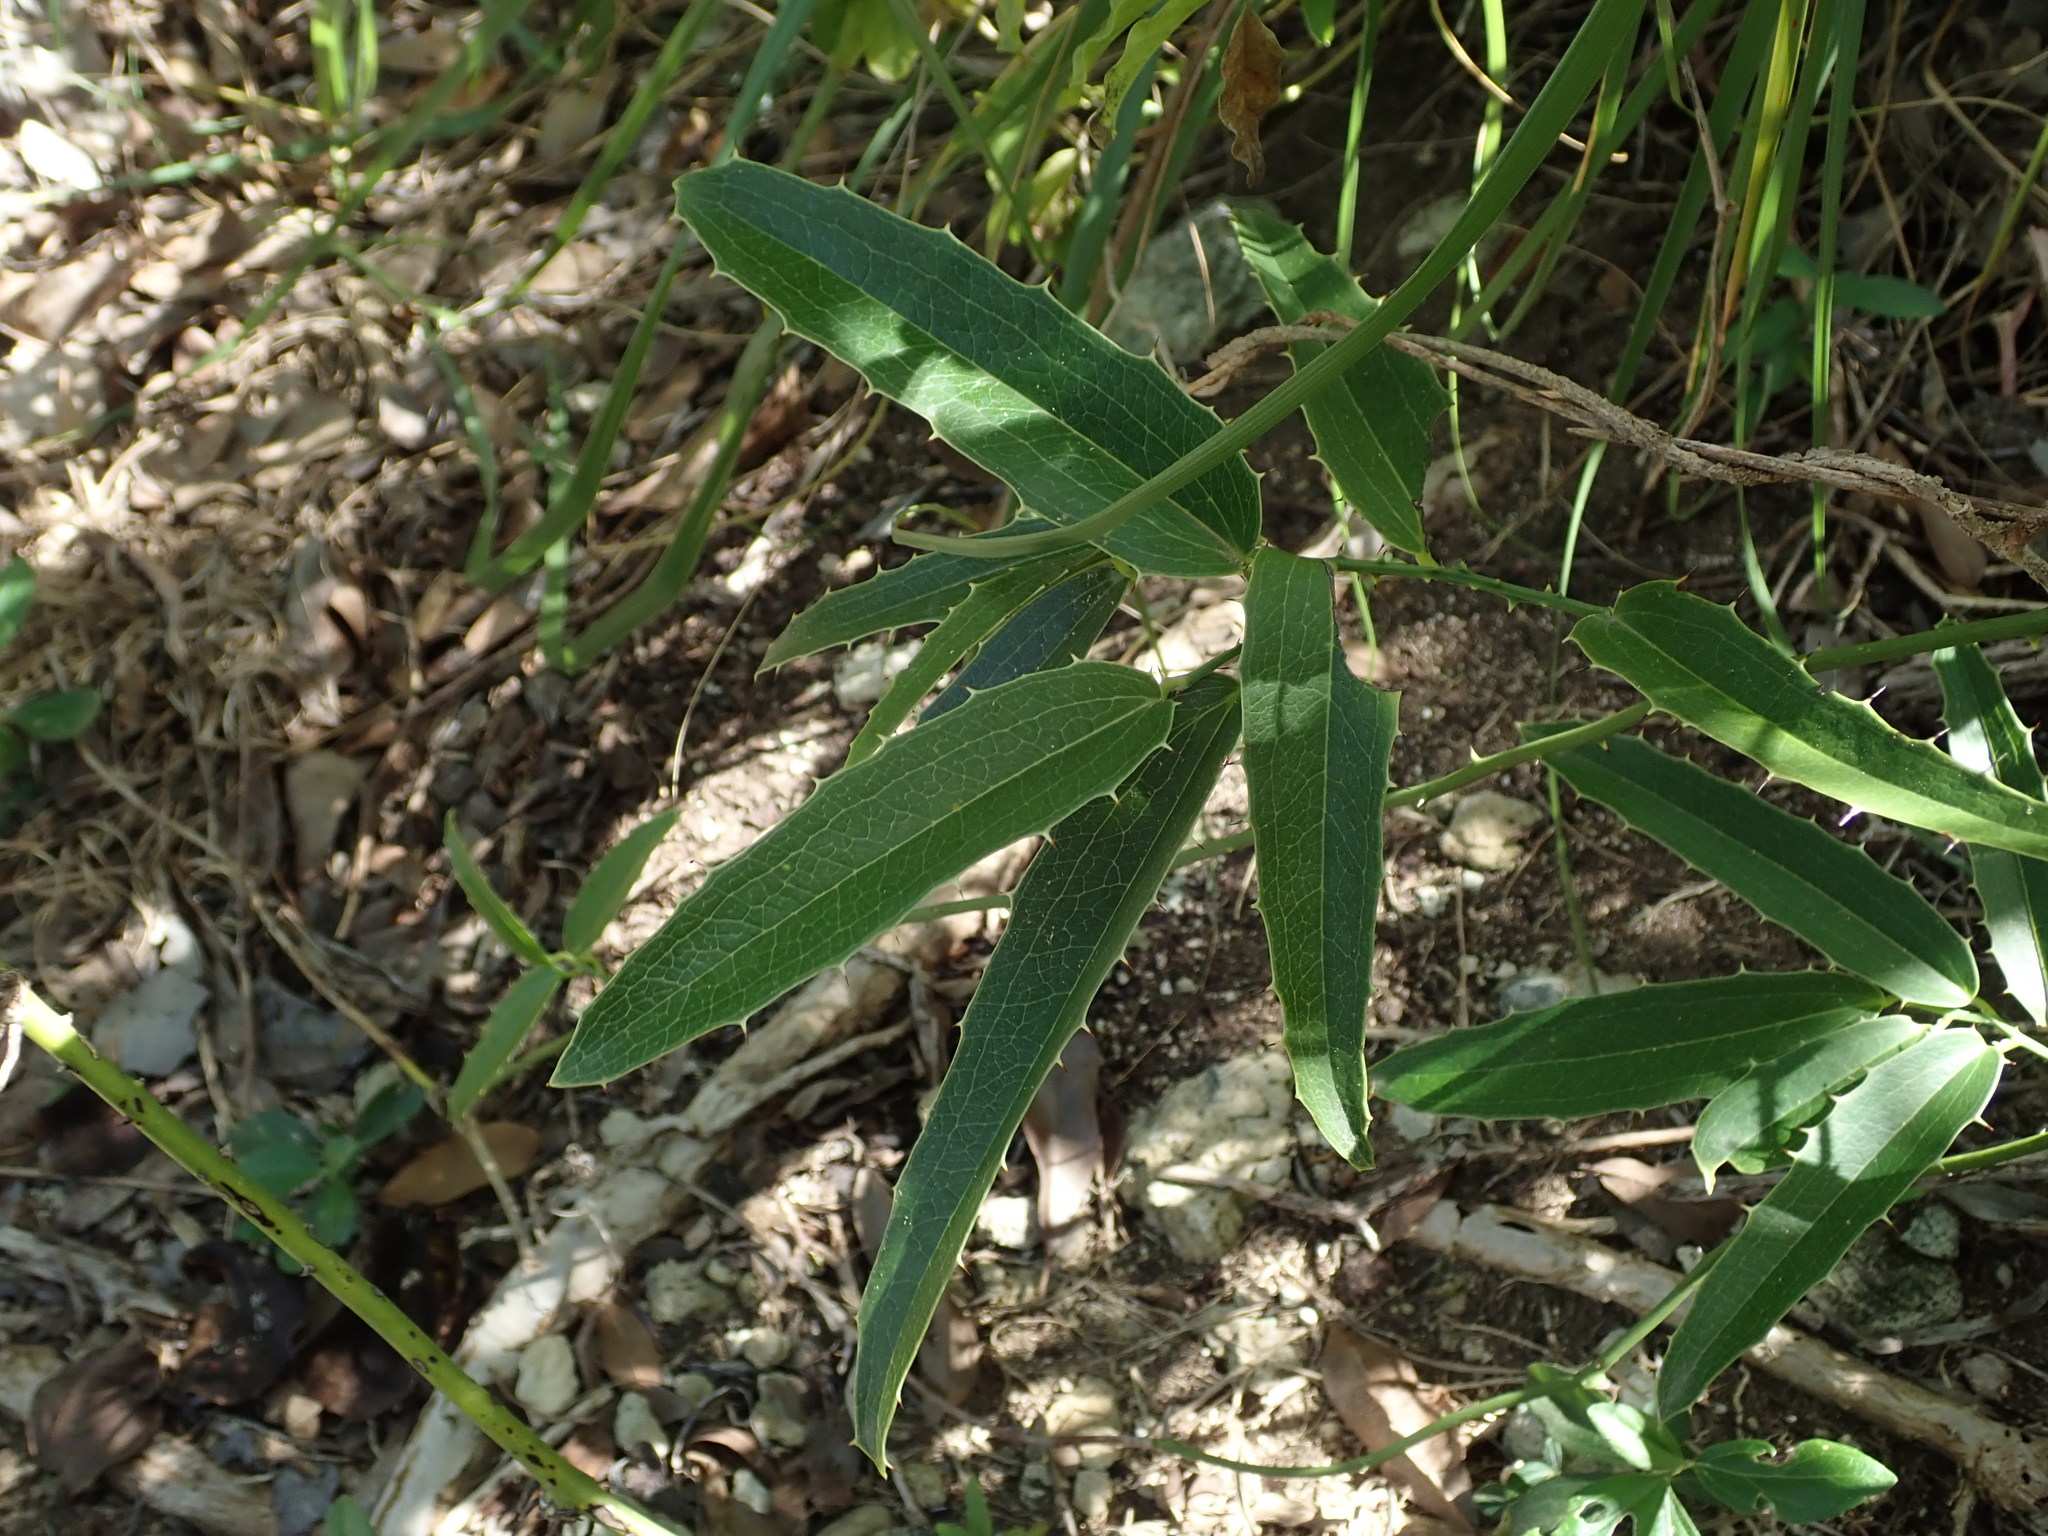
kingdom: Plantae
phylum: Tracheophyta
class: Liliopsida
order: Liliales
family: Smilacaceae
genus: Smilax
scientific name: Smilax coriacea
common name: White withe
